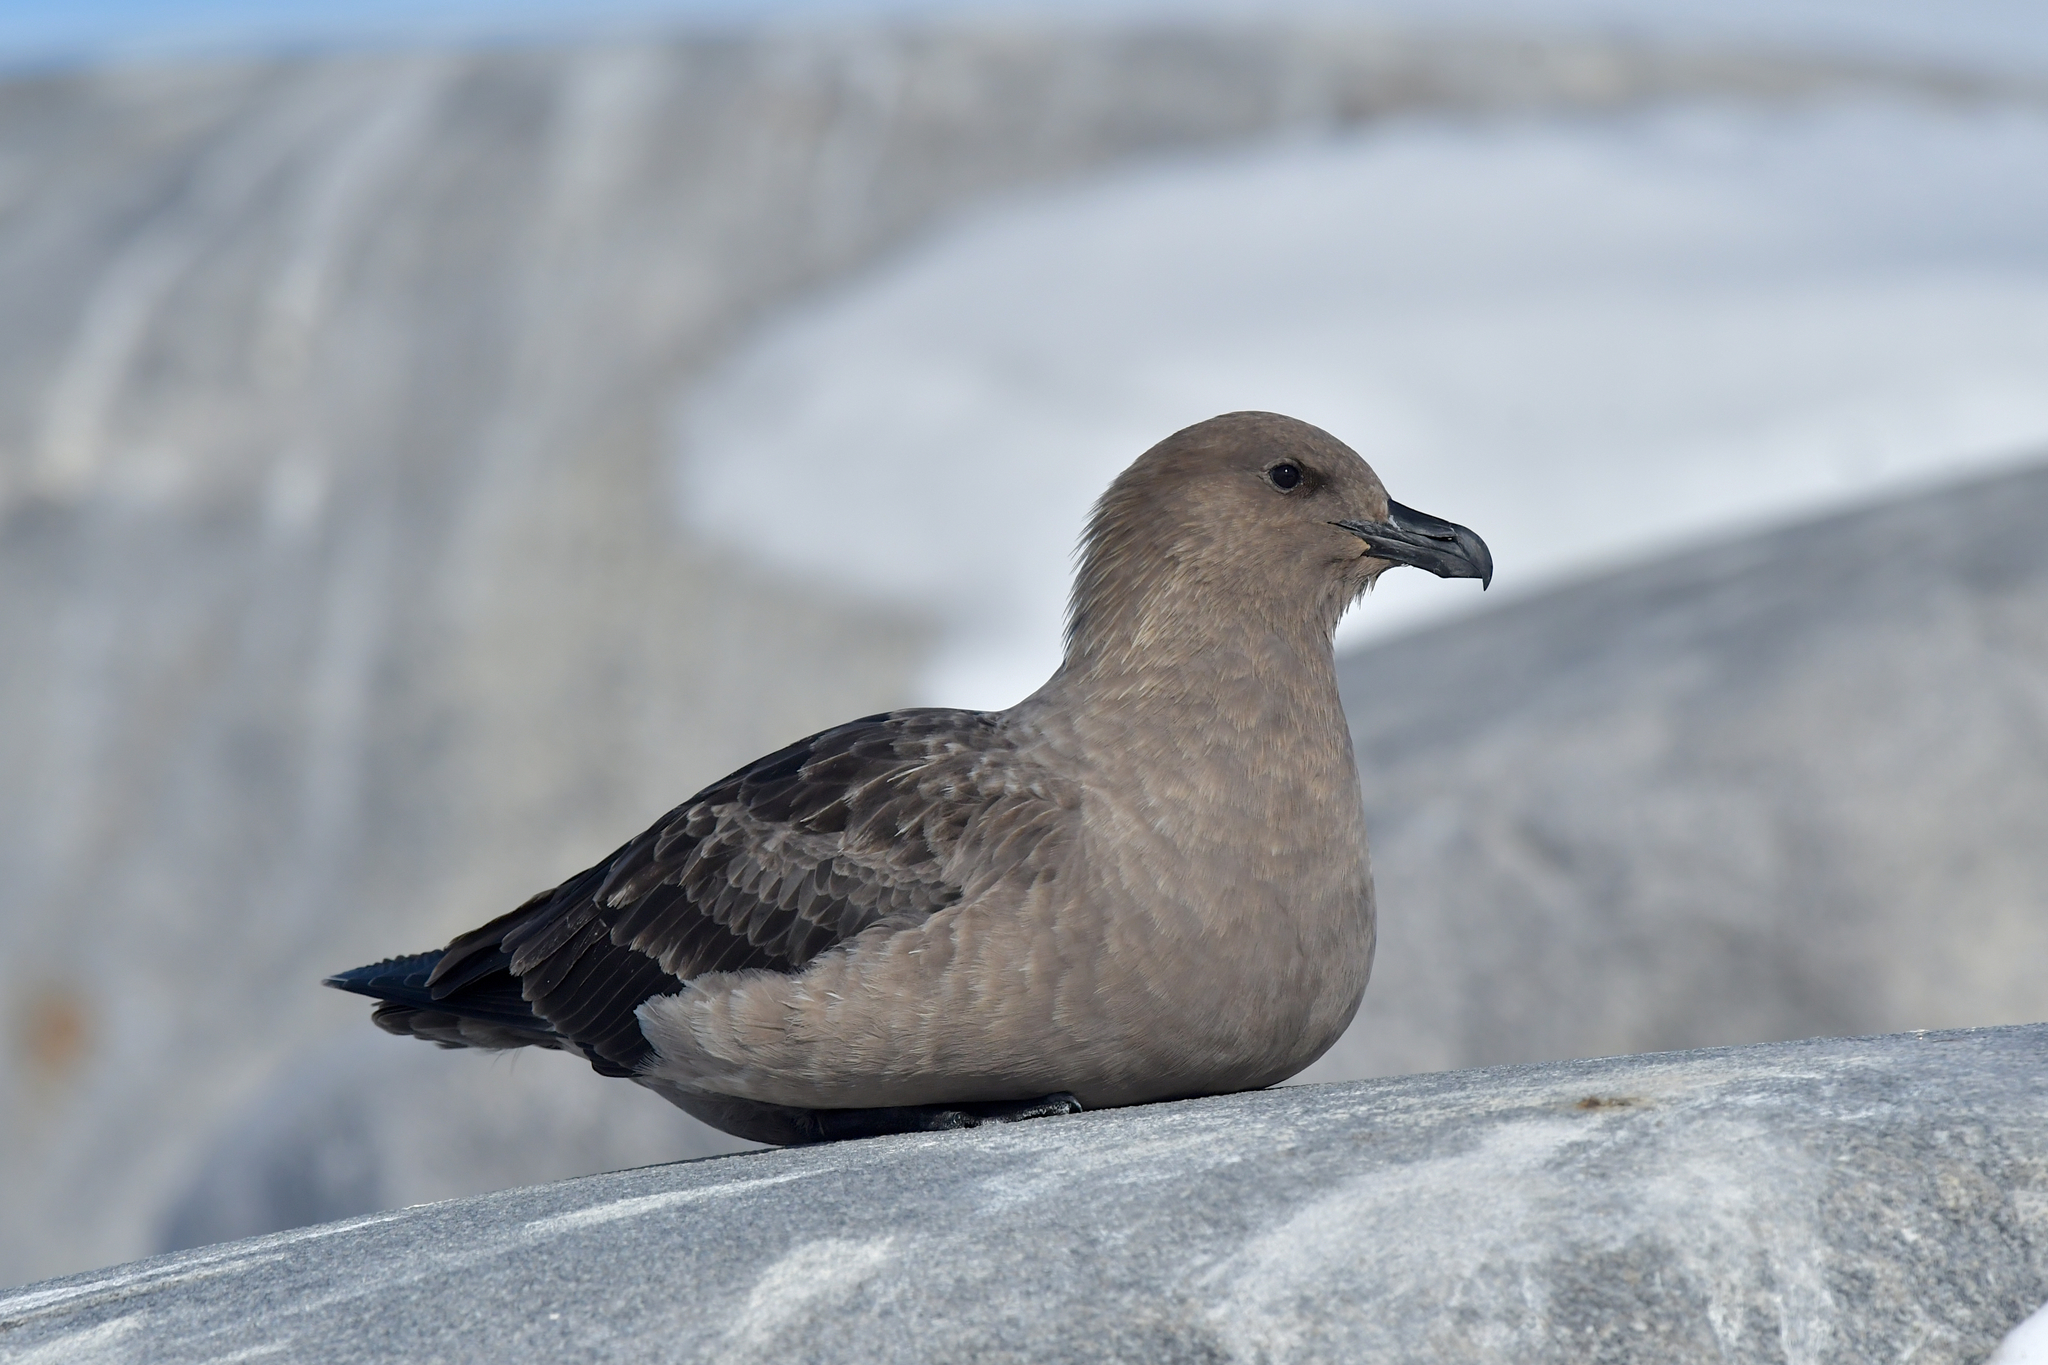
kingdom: Animalia
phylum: Chordata
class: Aves
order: Charadriiformes
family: Stercorariidae
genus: Stercorarius
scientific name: Stercorarius maccormicki
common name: South polar skua
